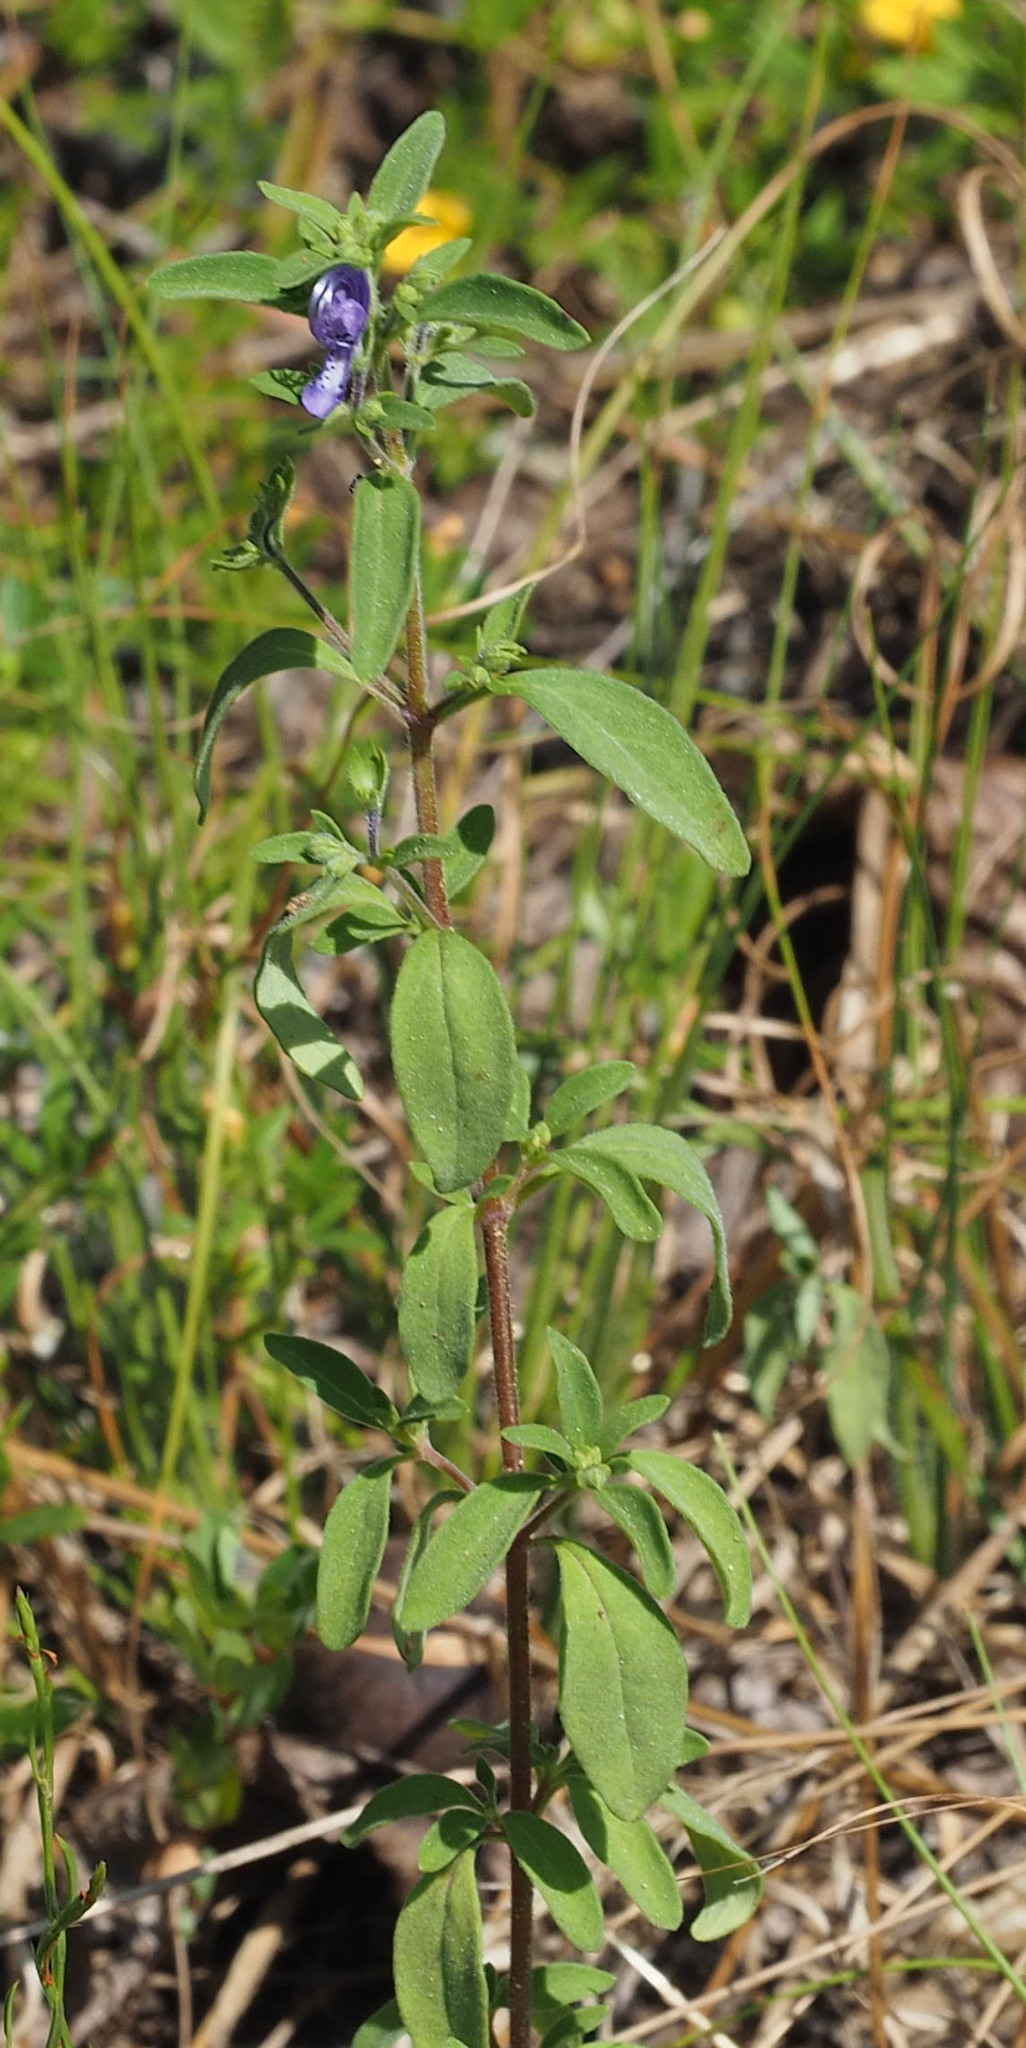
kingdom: Plantae
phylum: Tracheophyta
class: Magnoliopsida
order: Lamiales
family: Lamiaceae
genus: Trichostema
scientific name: Trichostema dichotomum
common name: Bastard pennyroyal
